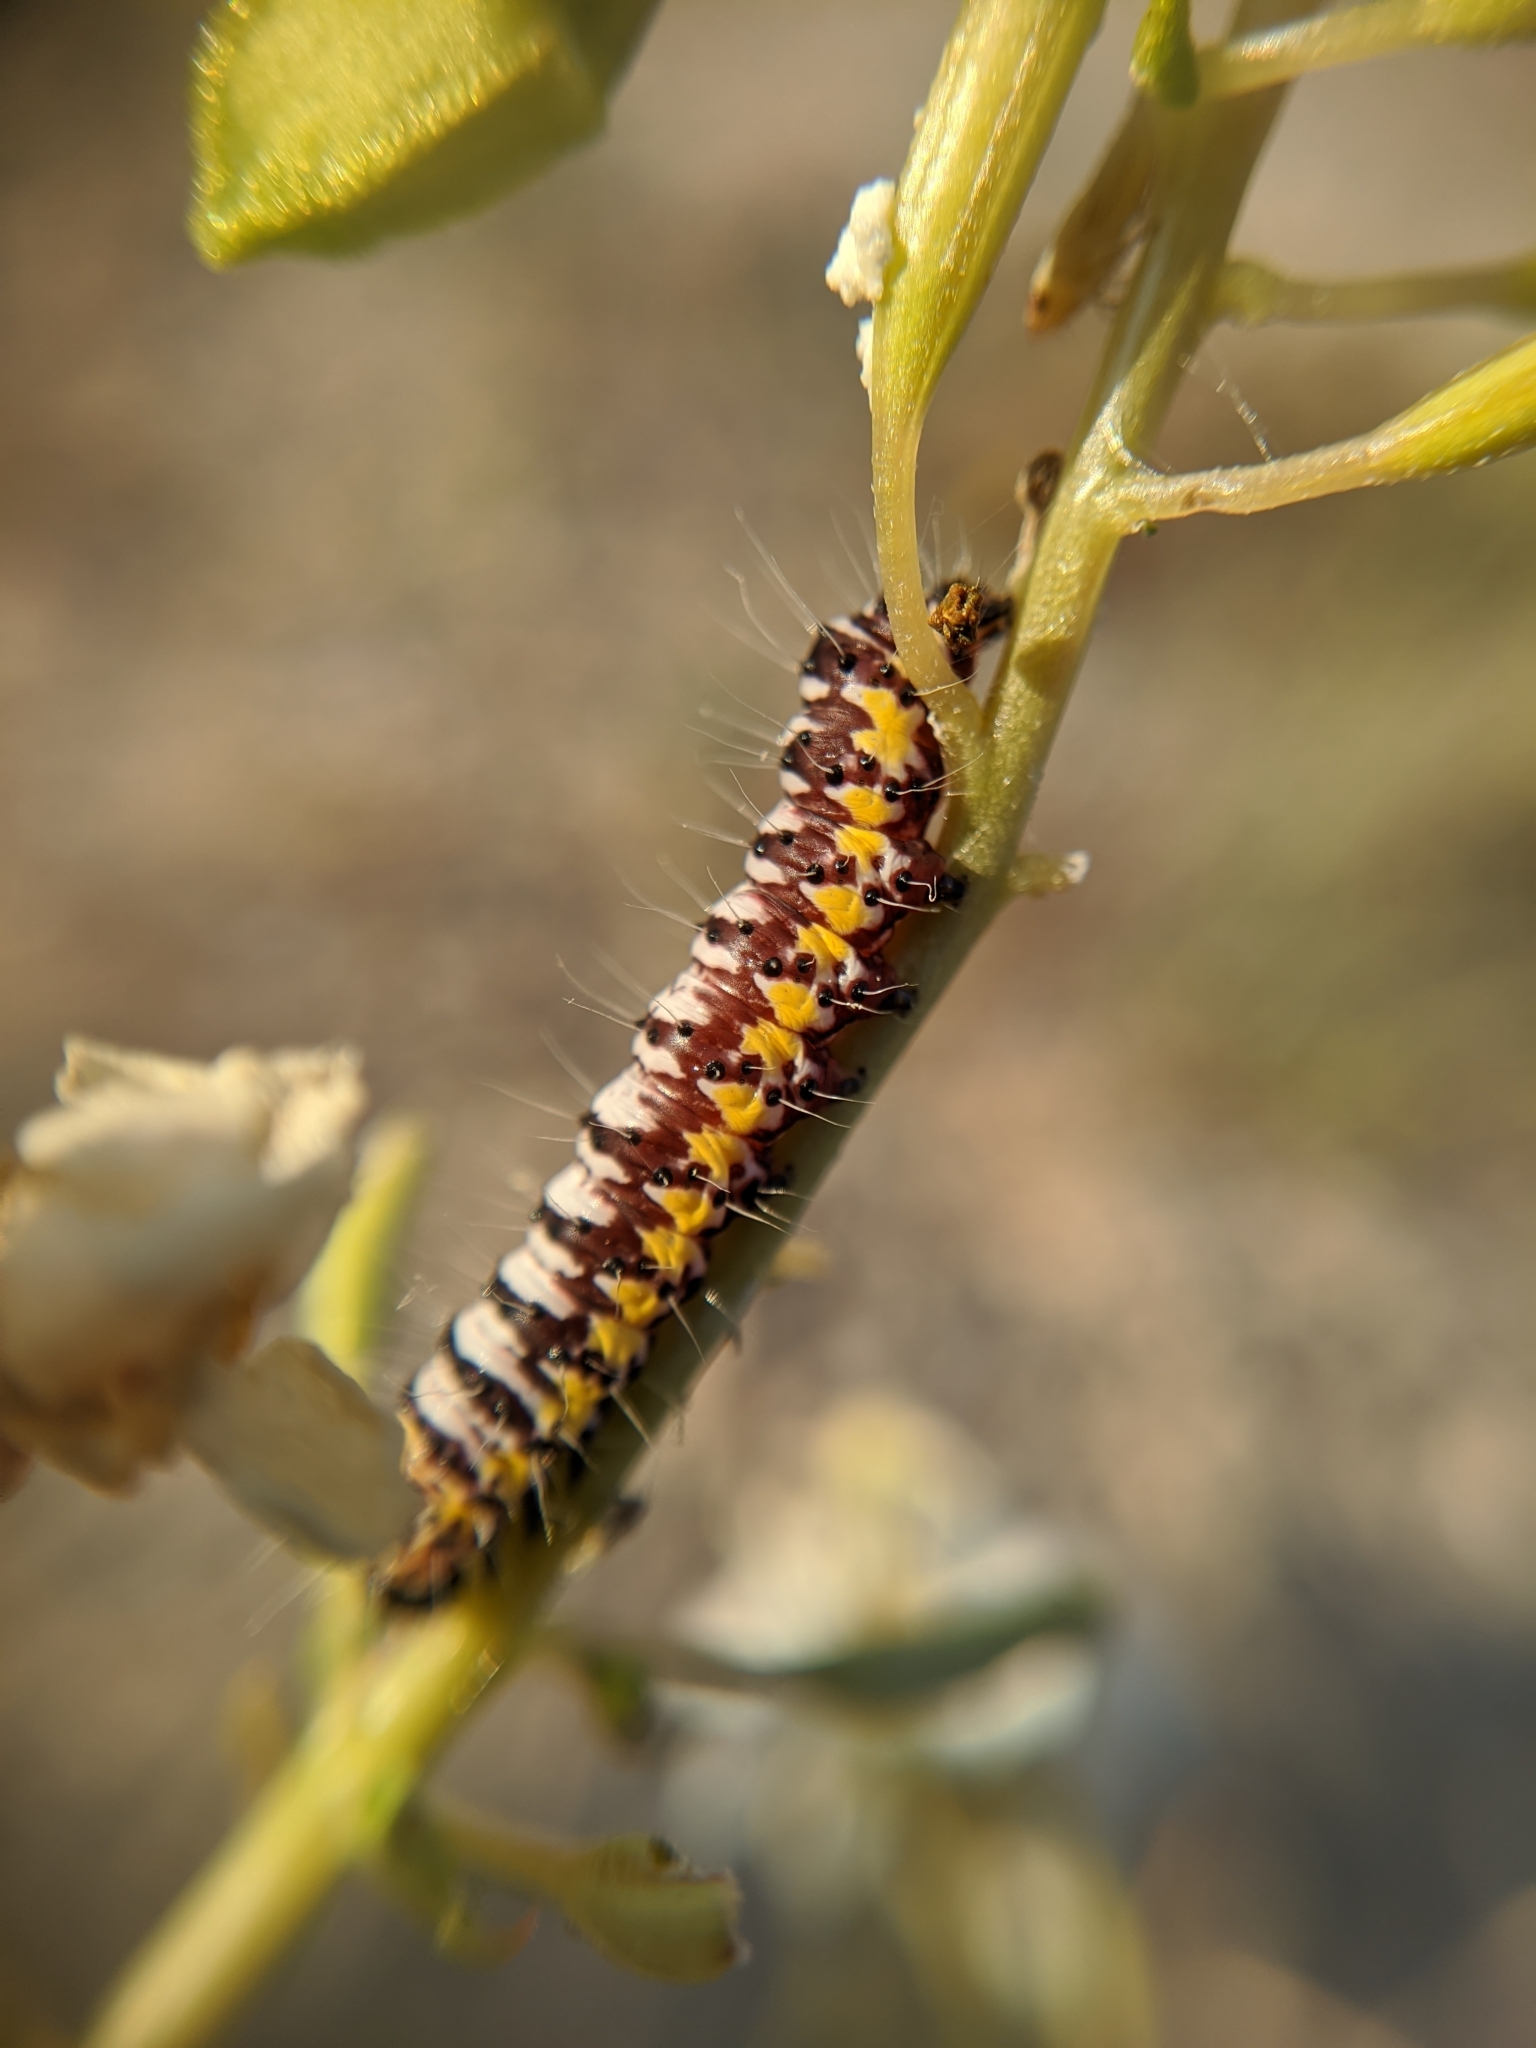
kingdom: Animalia
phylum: Arthropoda
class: Insecta
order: Lepidoptera
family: Noctuidae
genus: Alypia
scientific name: Alypia ridingsii
